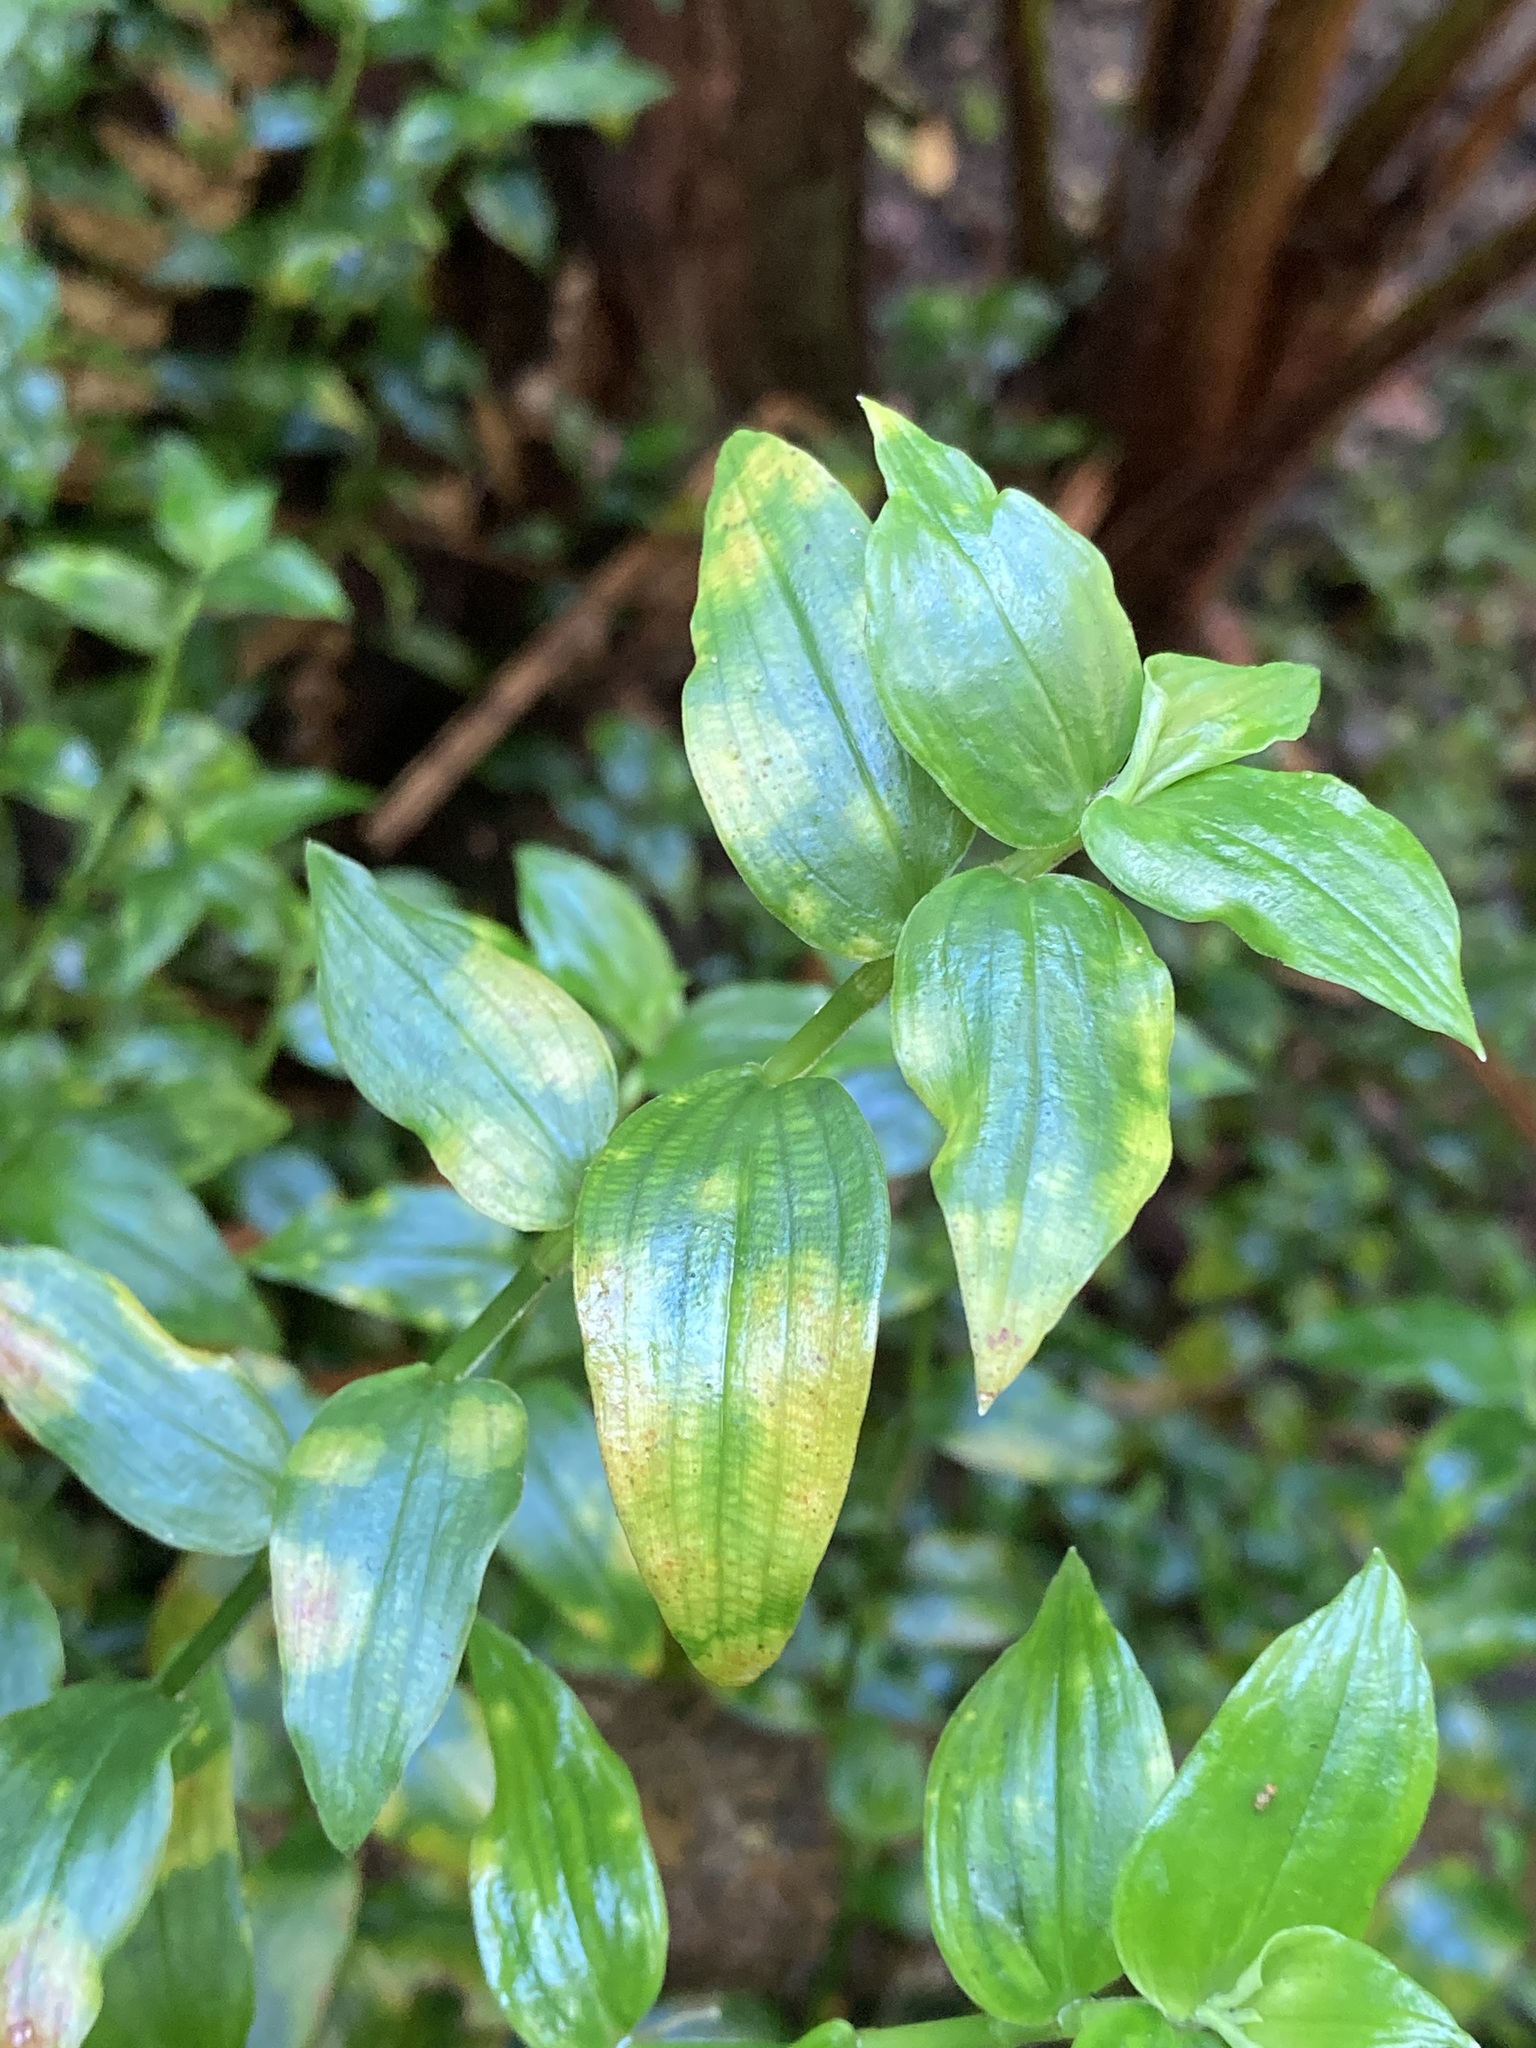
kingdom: Plantae
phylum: Tracheophyta
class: Liliopsida
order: Commelinales
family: Commelinaceae
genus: Tradescantia
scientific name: Tradescantia fluminensis
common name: Wandering-jew
